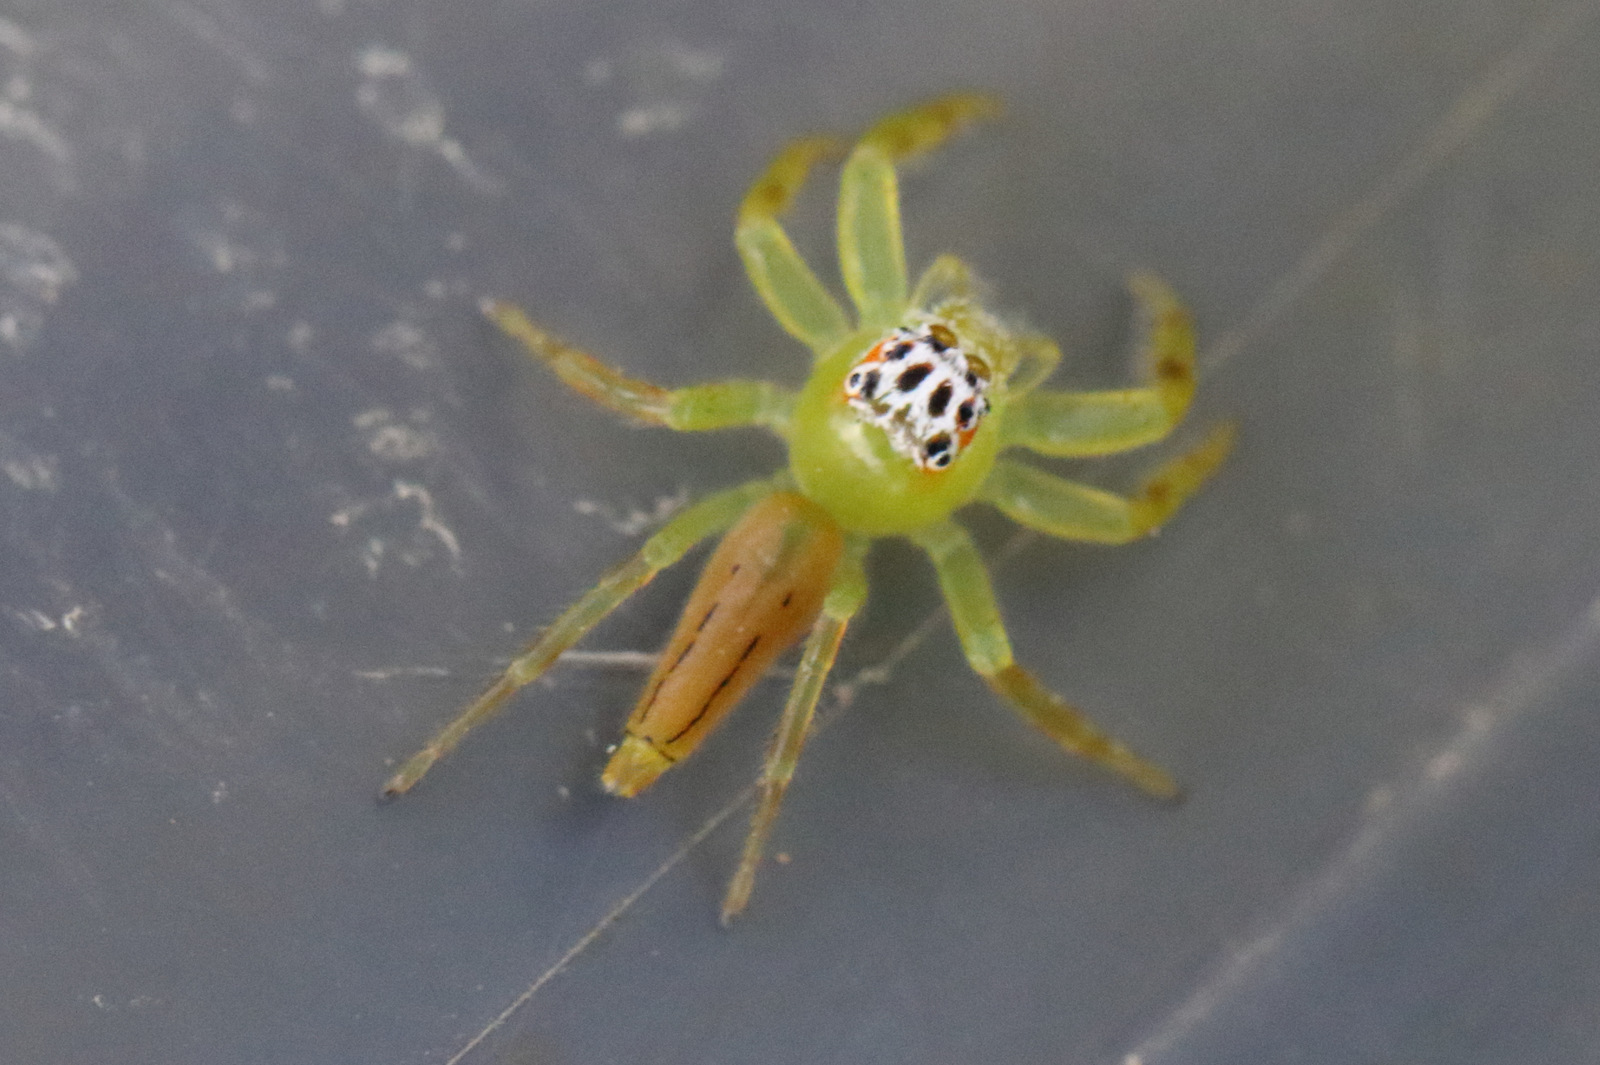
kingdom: Animalia
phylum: Arthropoda
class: Arachnida
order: Araneae
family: Salticidae
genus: Mopsus
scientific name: Mopsus mormon
